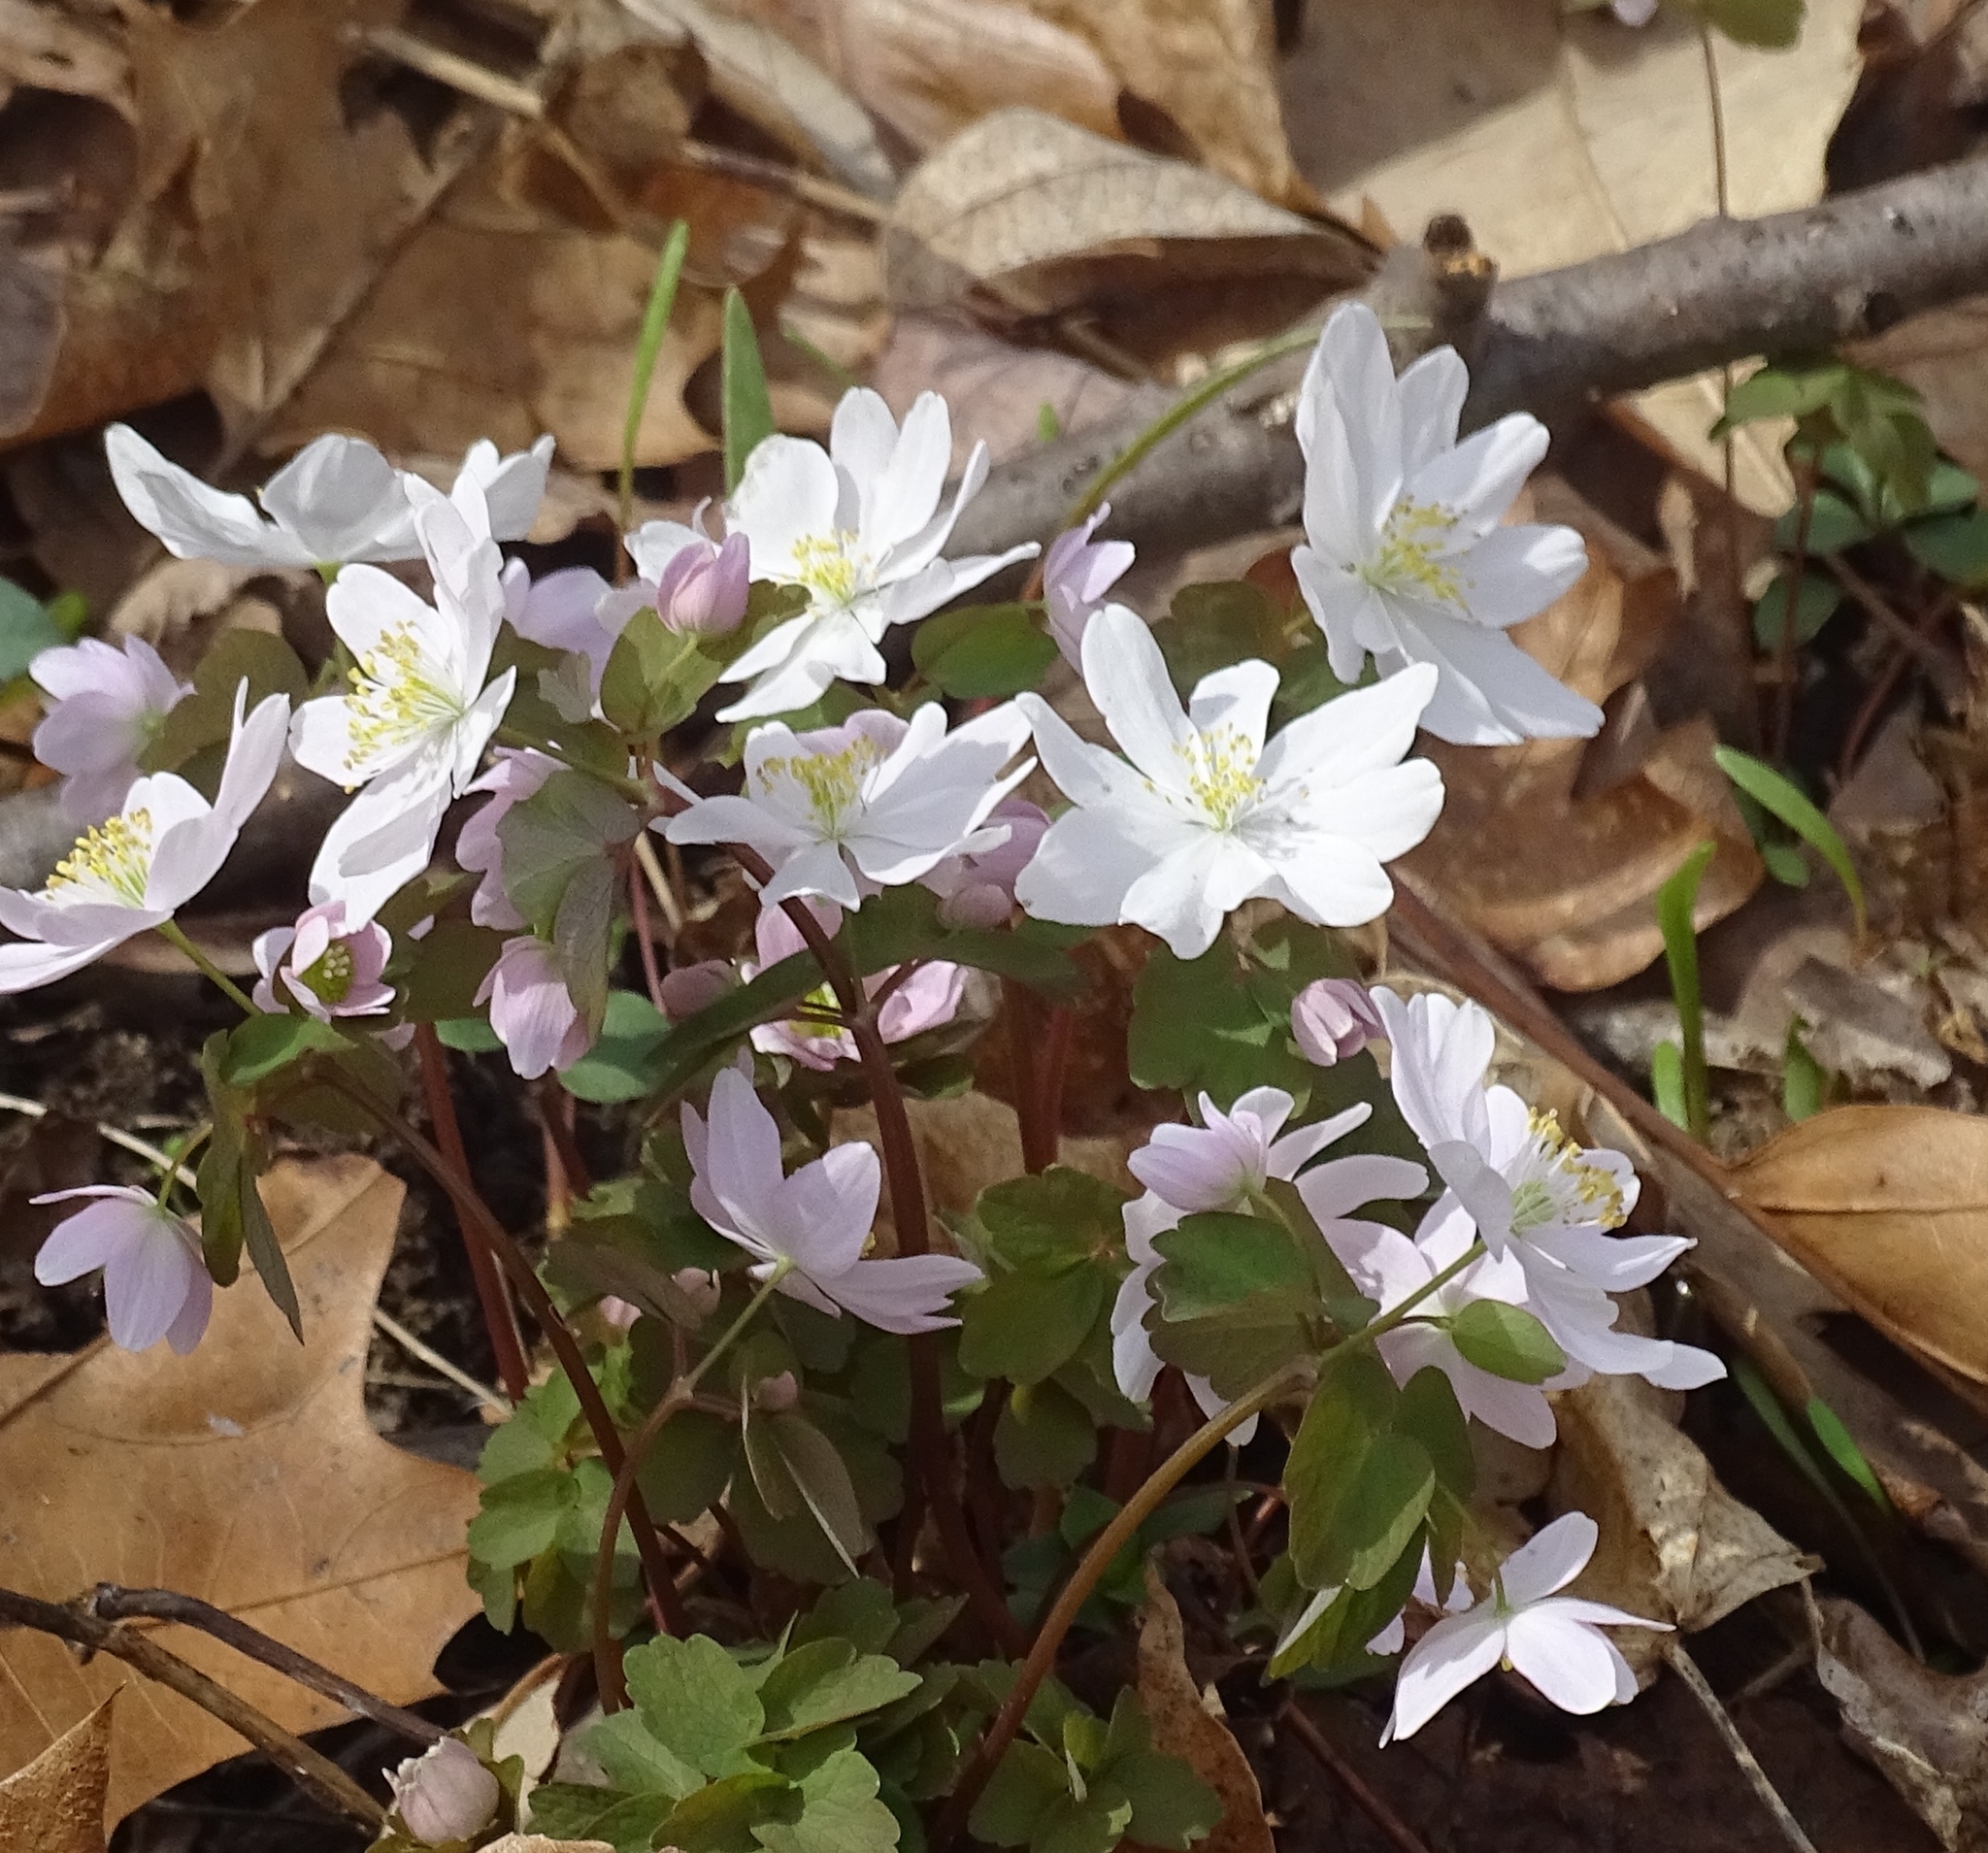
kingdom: Plantae
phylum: Tracheophyta
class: Magnoliopsida
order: Ranunculales
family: Ranunculaceae
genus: Thalictrum
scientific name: Thalictrum thalictroides
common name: Rue-anemone
